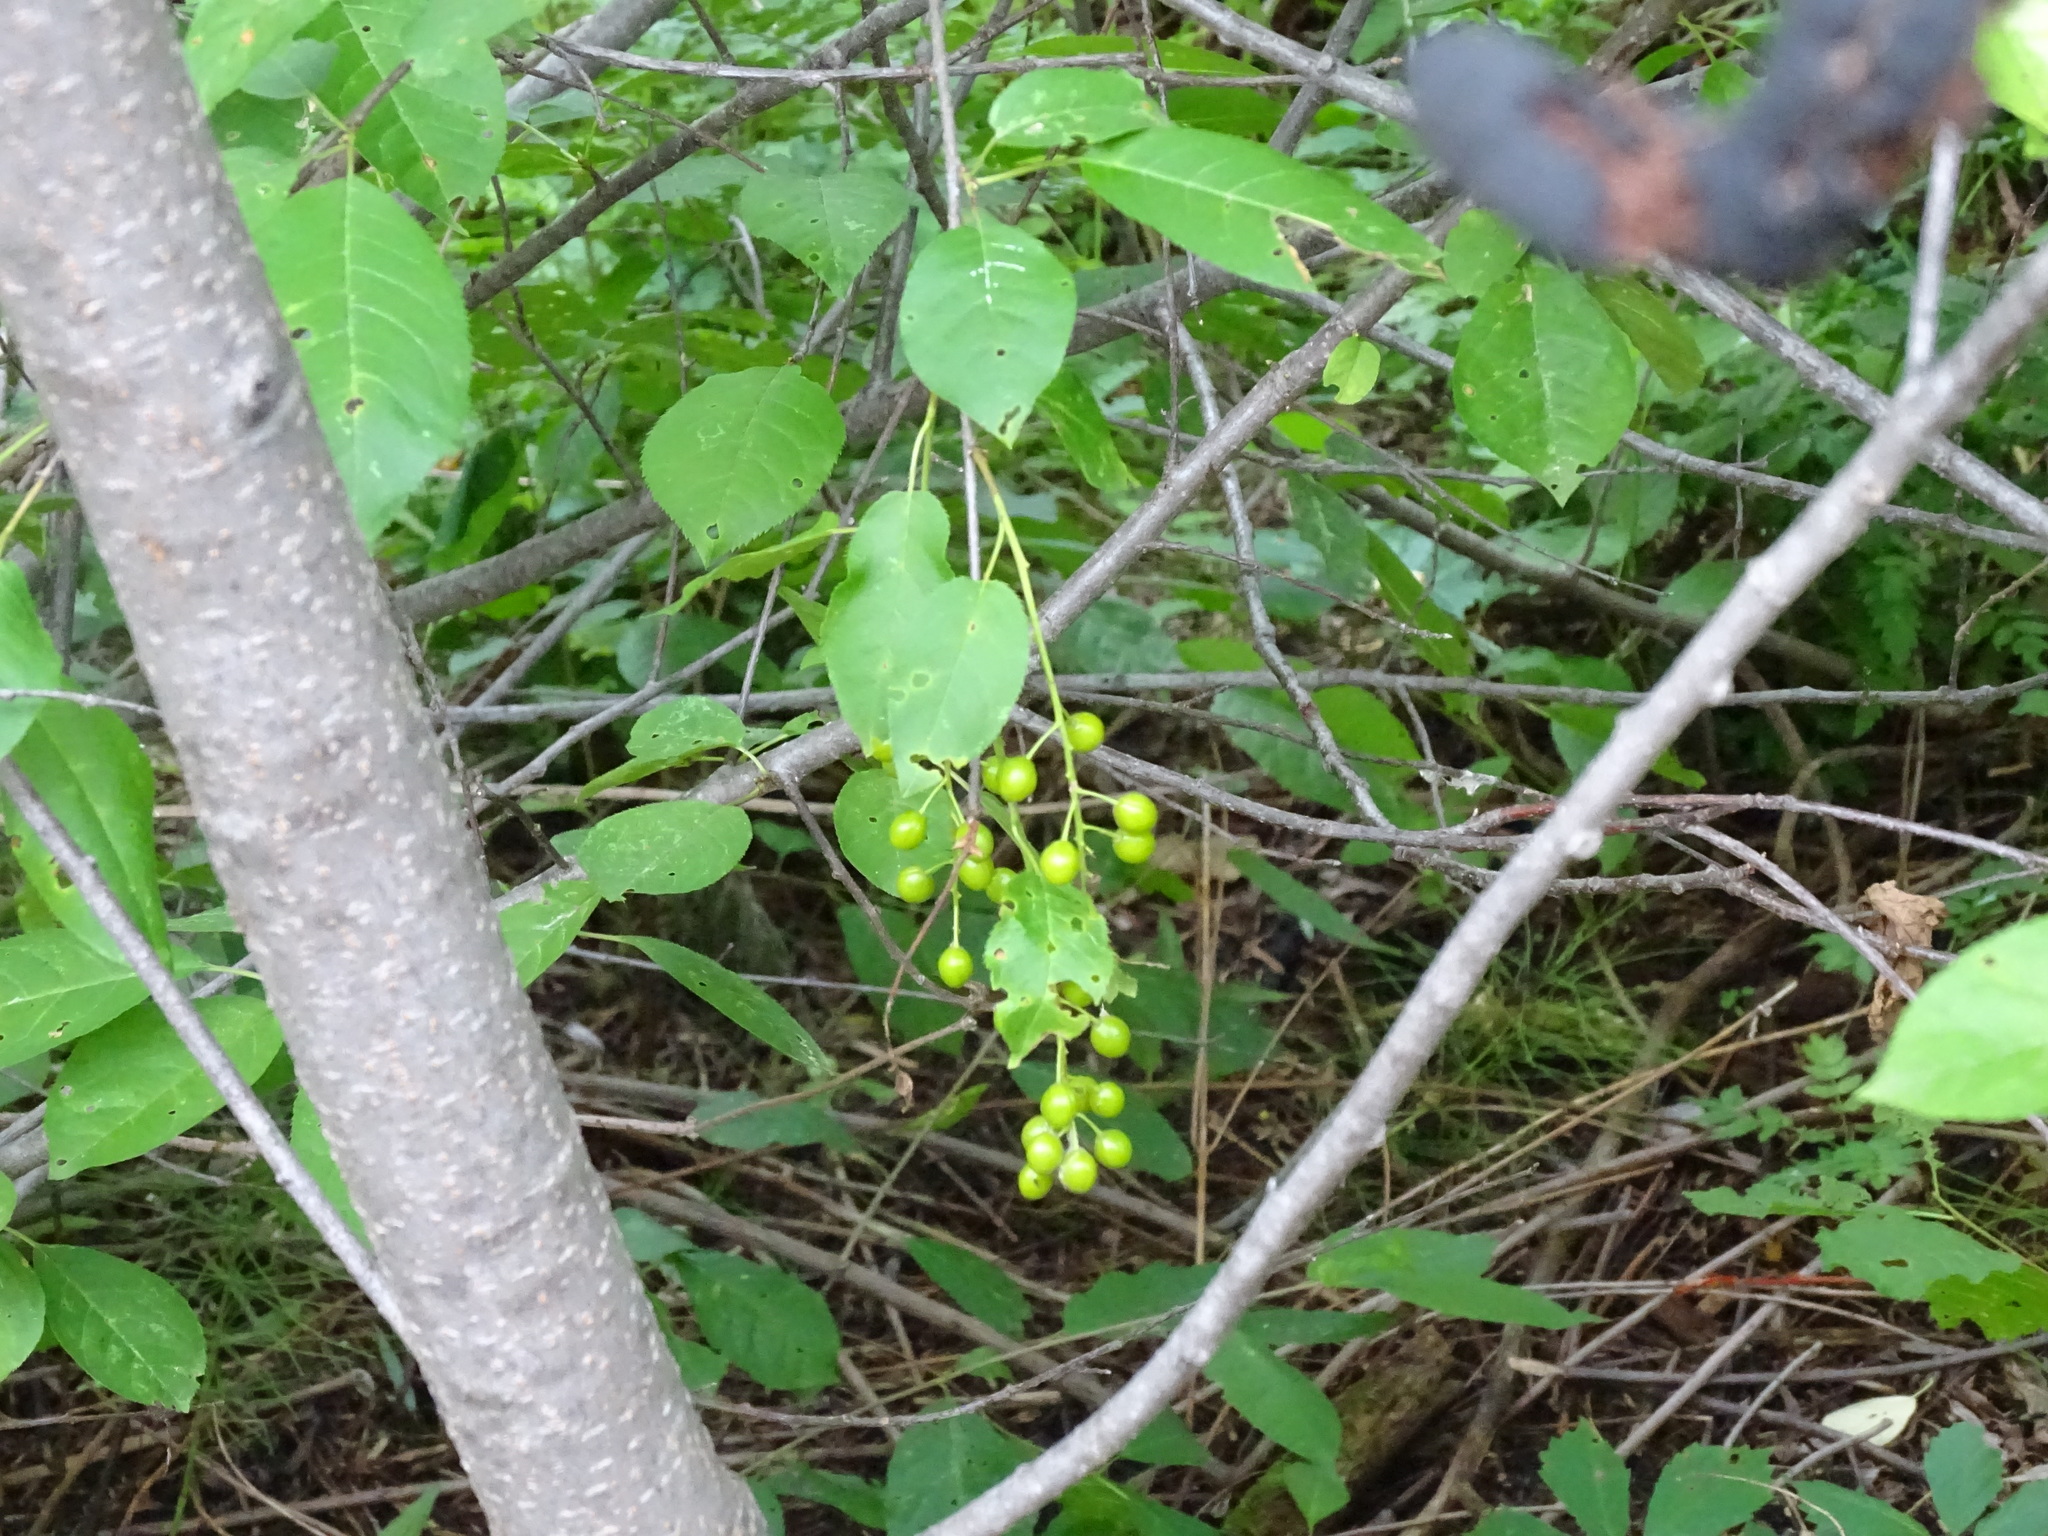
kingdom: Plantae
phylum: Tracheophyta
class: Magnoliopsida
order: Rosales
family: Rosaceae
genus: Prunus
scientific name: Prunus virginiana
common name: Chokecherry
